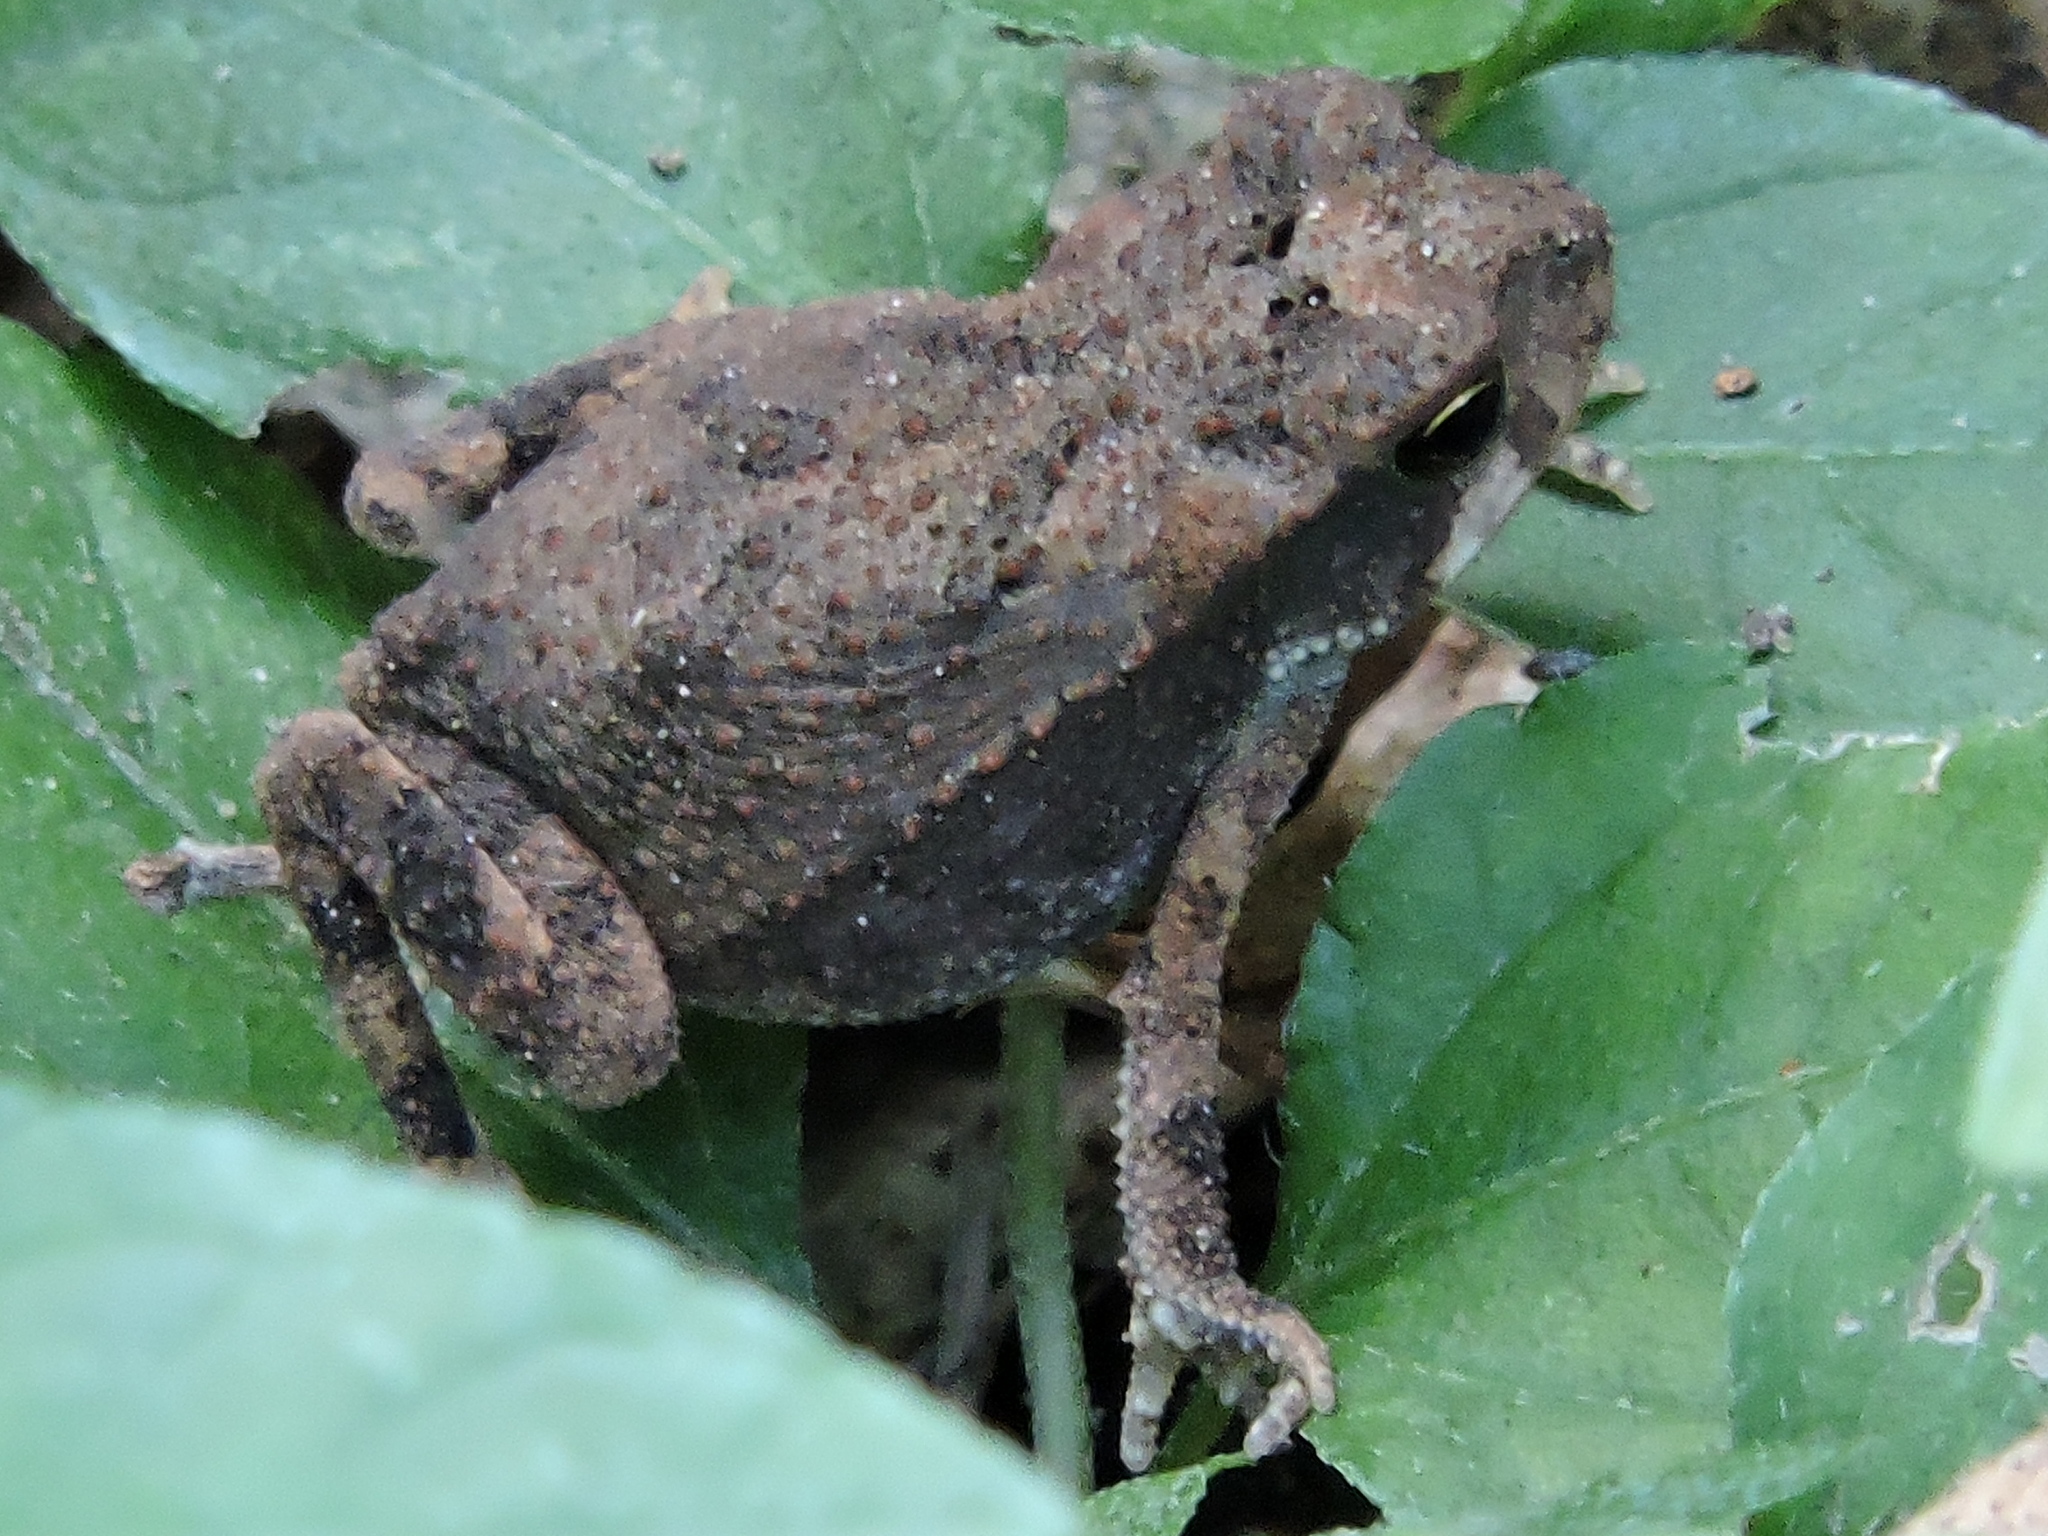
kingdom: Animalia
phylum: Chordata
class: Amphibia
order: Anura
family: Bufonidae
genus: Incilius
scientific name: Incilius nebulifer
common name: Gulf coast toad
